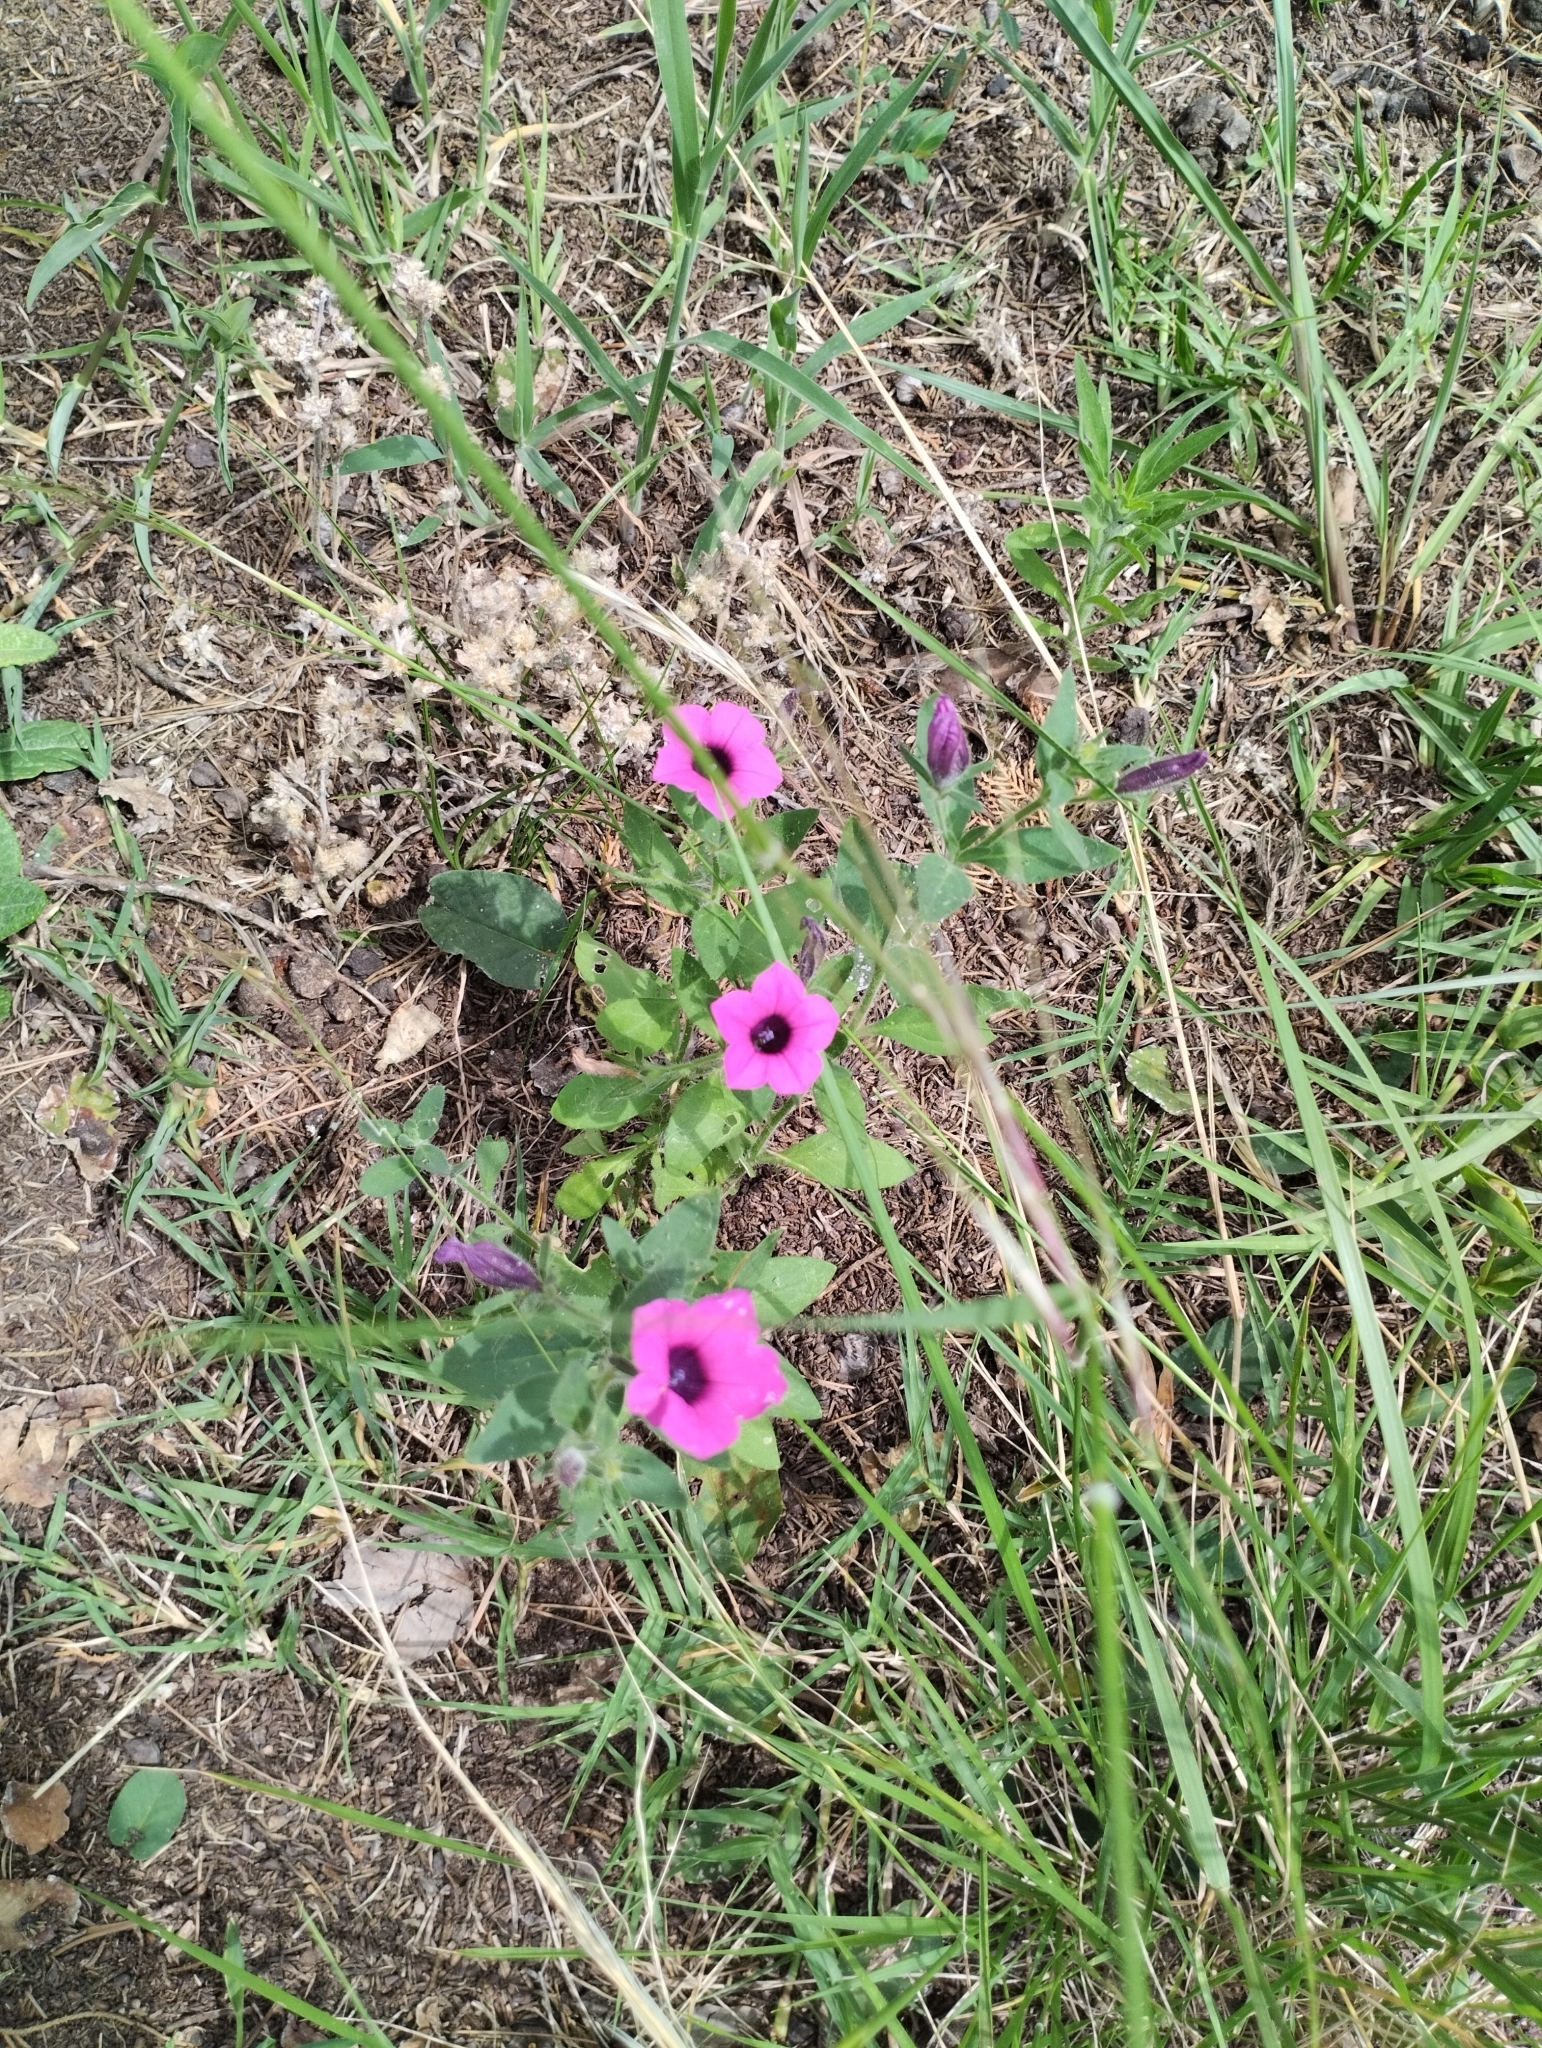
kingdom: Plantae
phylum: Tracheophyta
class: Magnoliopsida
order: Solanales
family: Solanaceae
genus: Petunia
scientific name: Petunia integrifolia
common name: Violet-flower petunia
